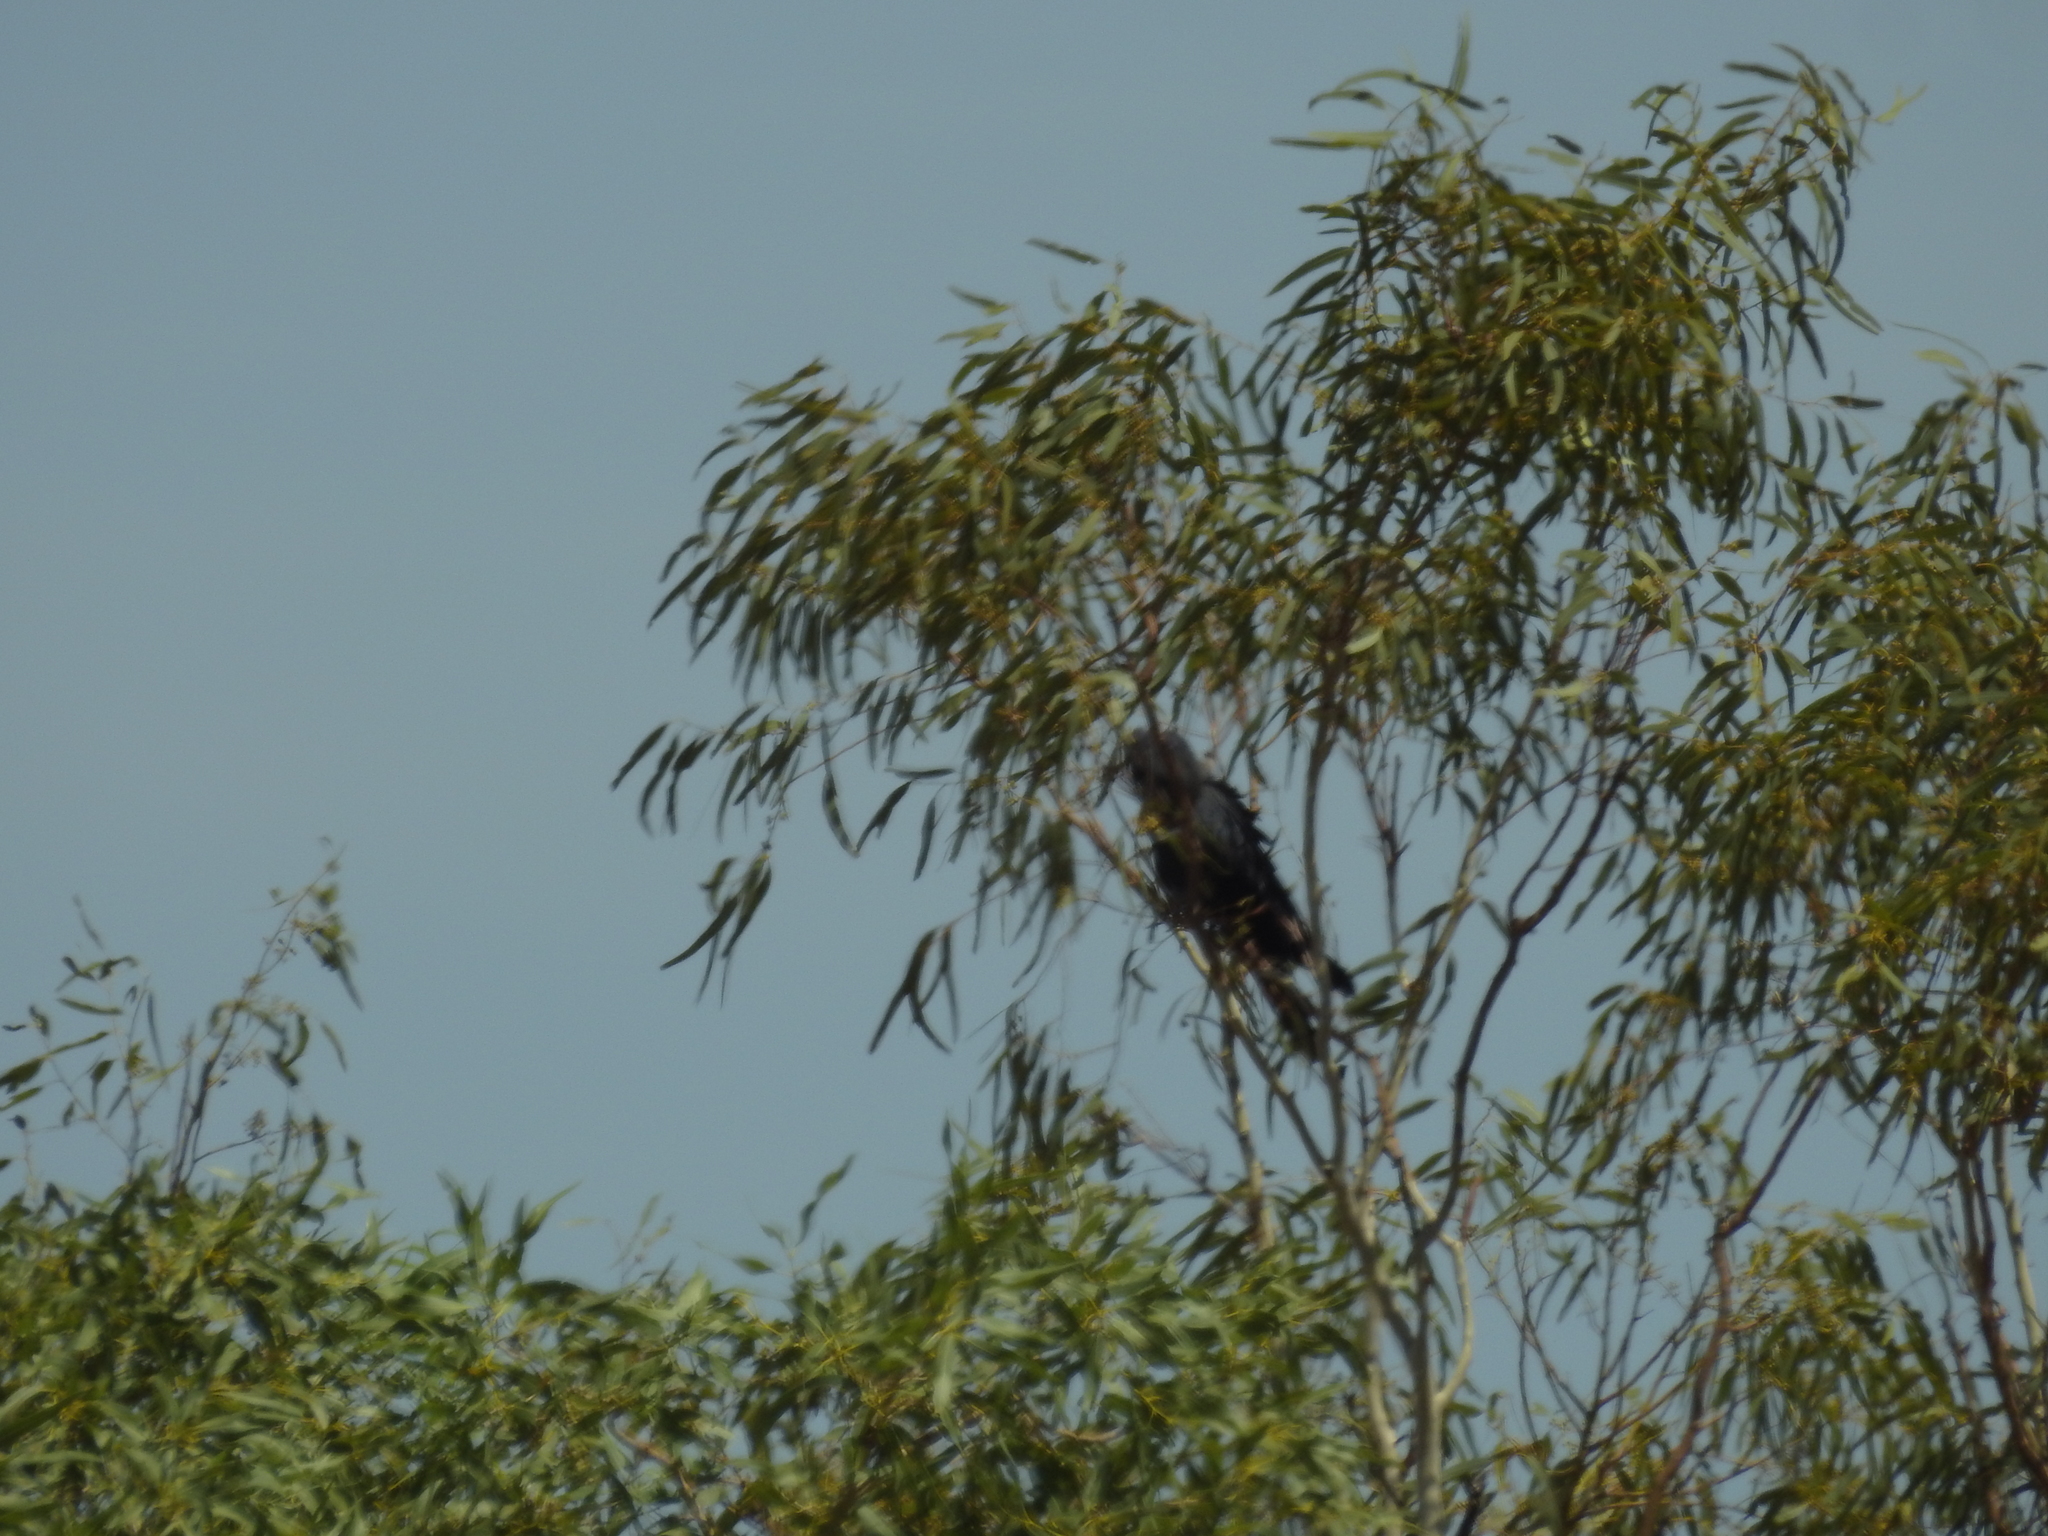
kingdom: Animalia
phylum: Chordata
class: Aves
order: Psittaciformes
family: Psittacidae
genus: Calyptorhynchus
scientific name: Calyptorhynchus banksii
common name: Red-tailed black cockatoo
